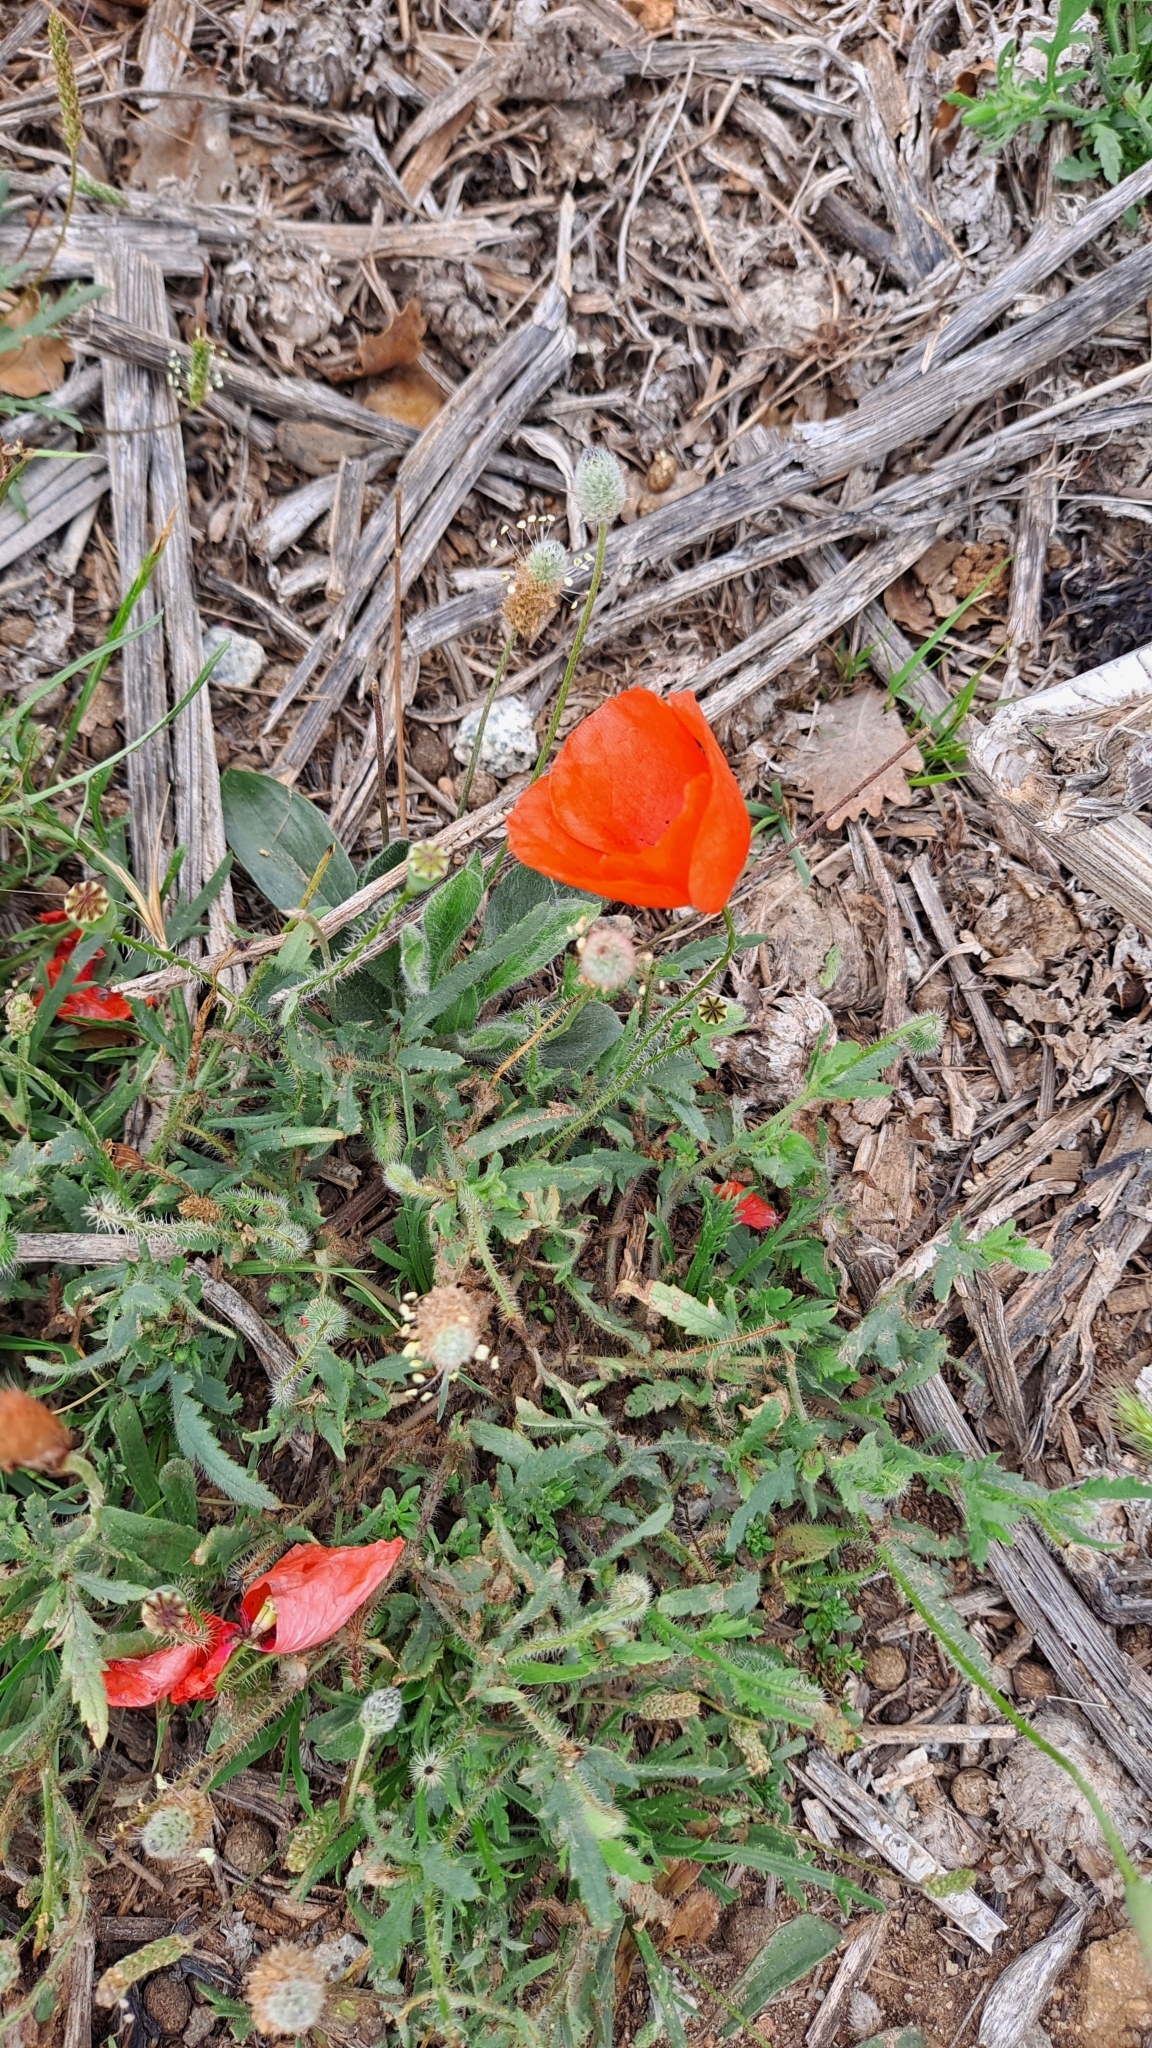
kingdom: Plantae
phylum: Tracheophyta
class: Magnoliopsida
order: Ranunculales
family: Papaveraceae
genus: Papaver
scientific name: Papaver rhoeas
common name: Corn poppy
